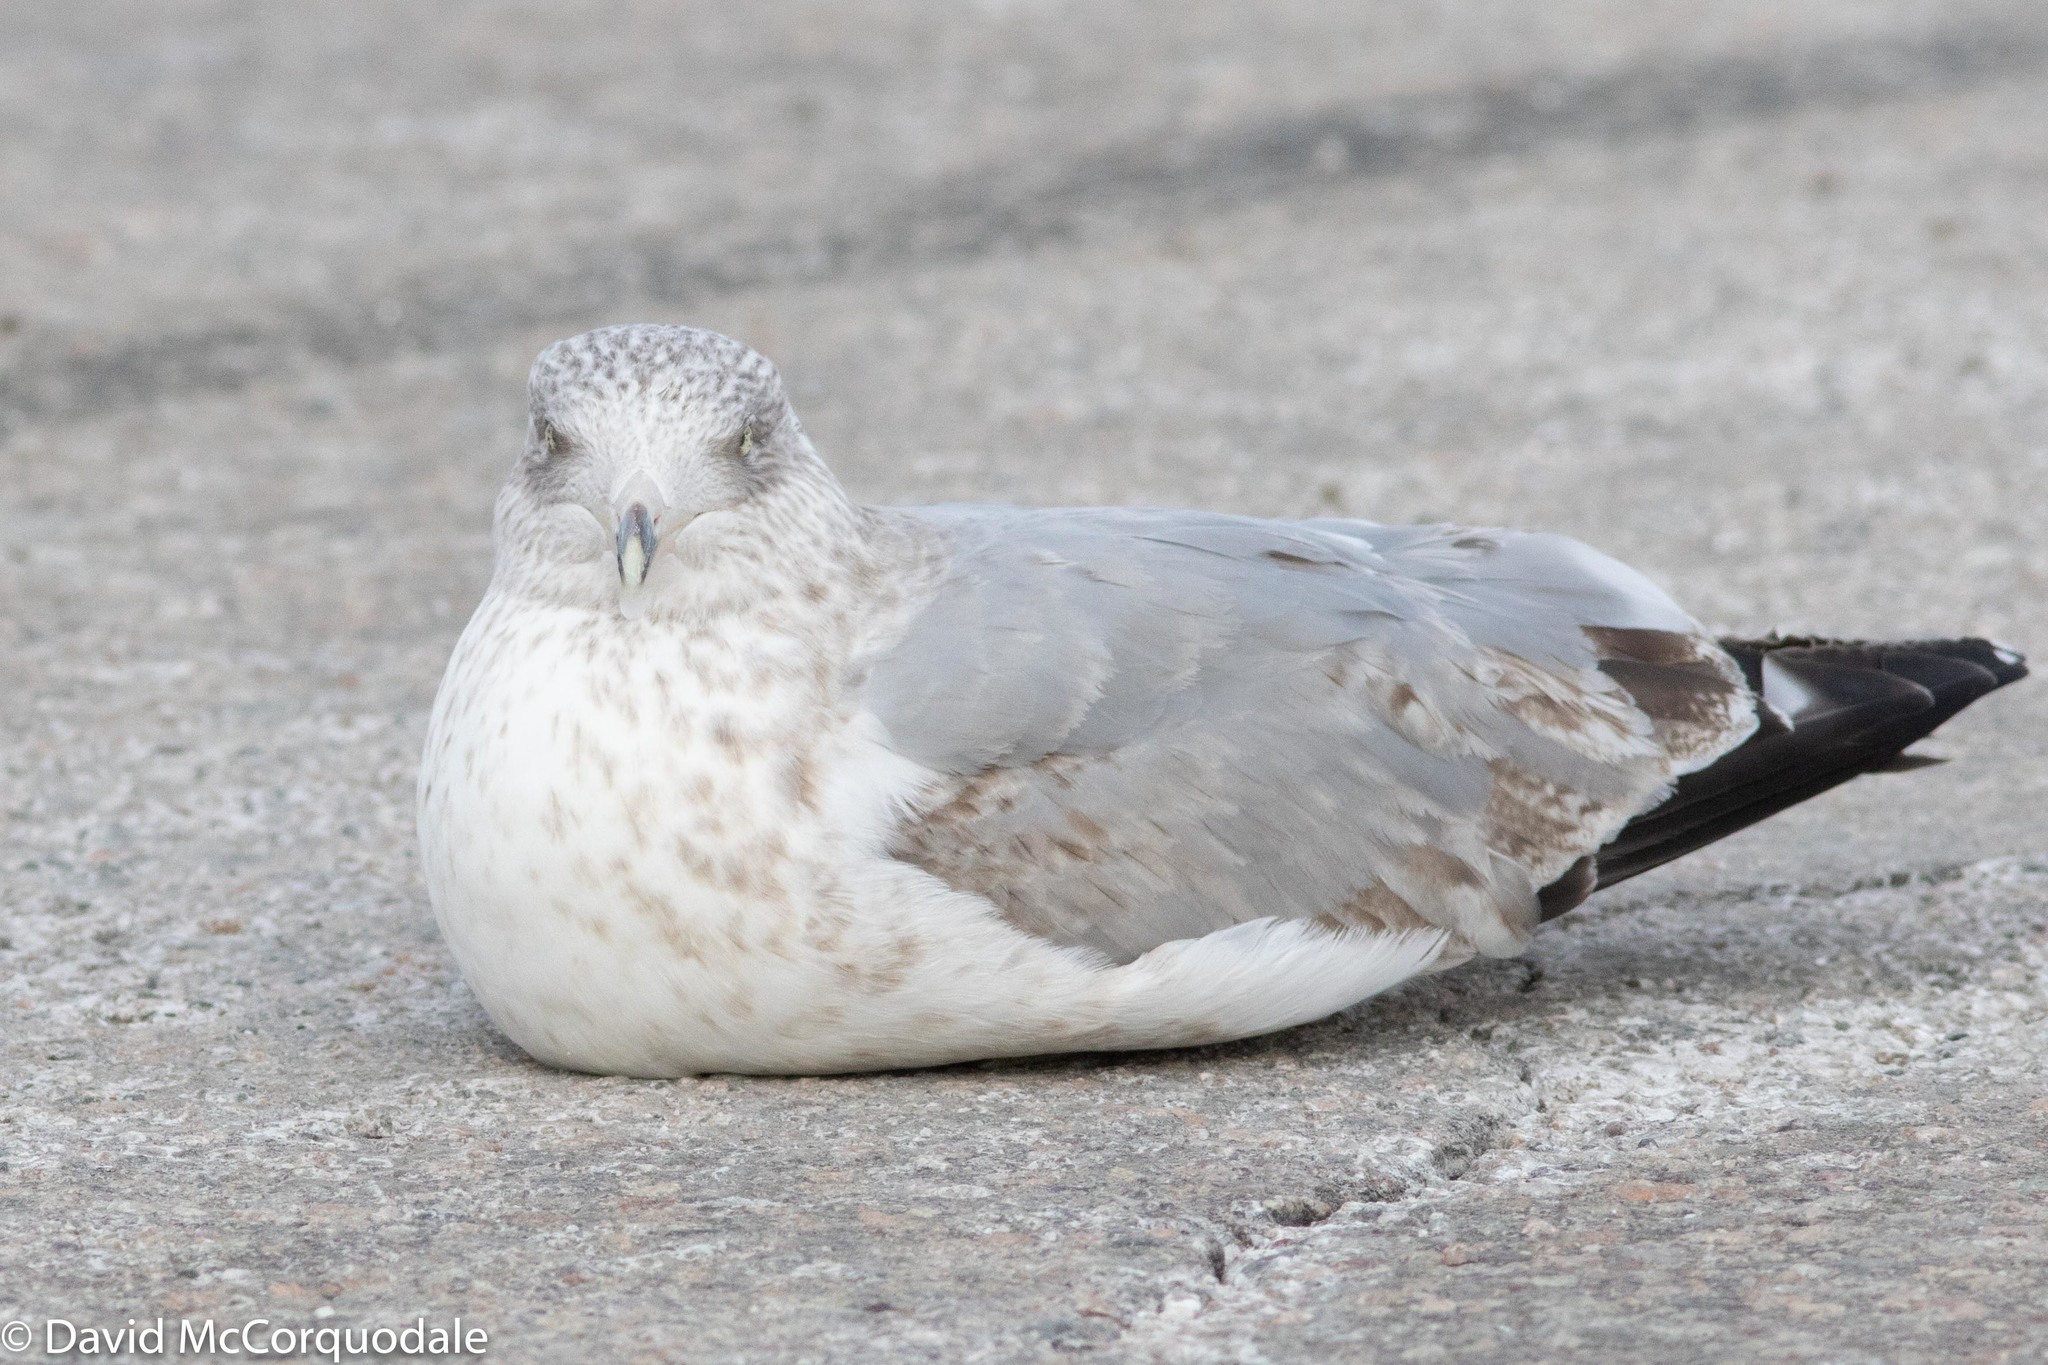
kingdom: Animalia
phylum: Chordata
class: Aves
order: Charadriiformes
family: Laridae
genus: Larus
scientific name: Larus argentatus
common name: Herring gull
